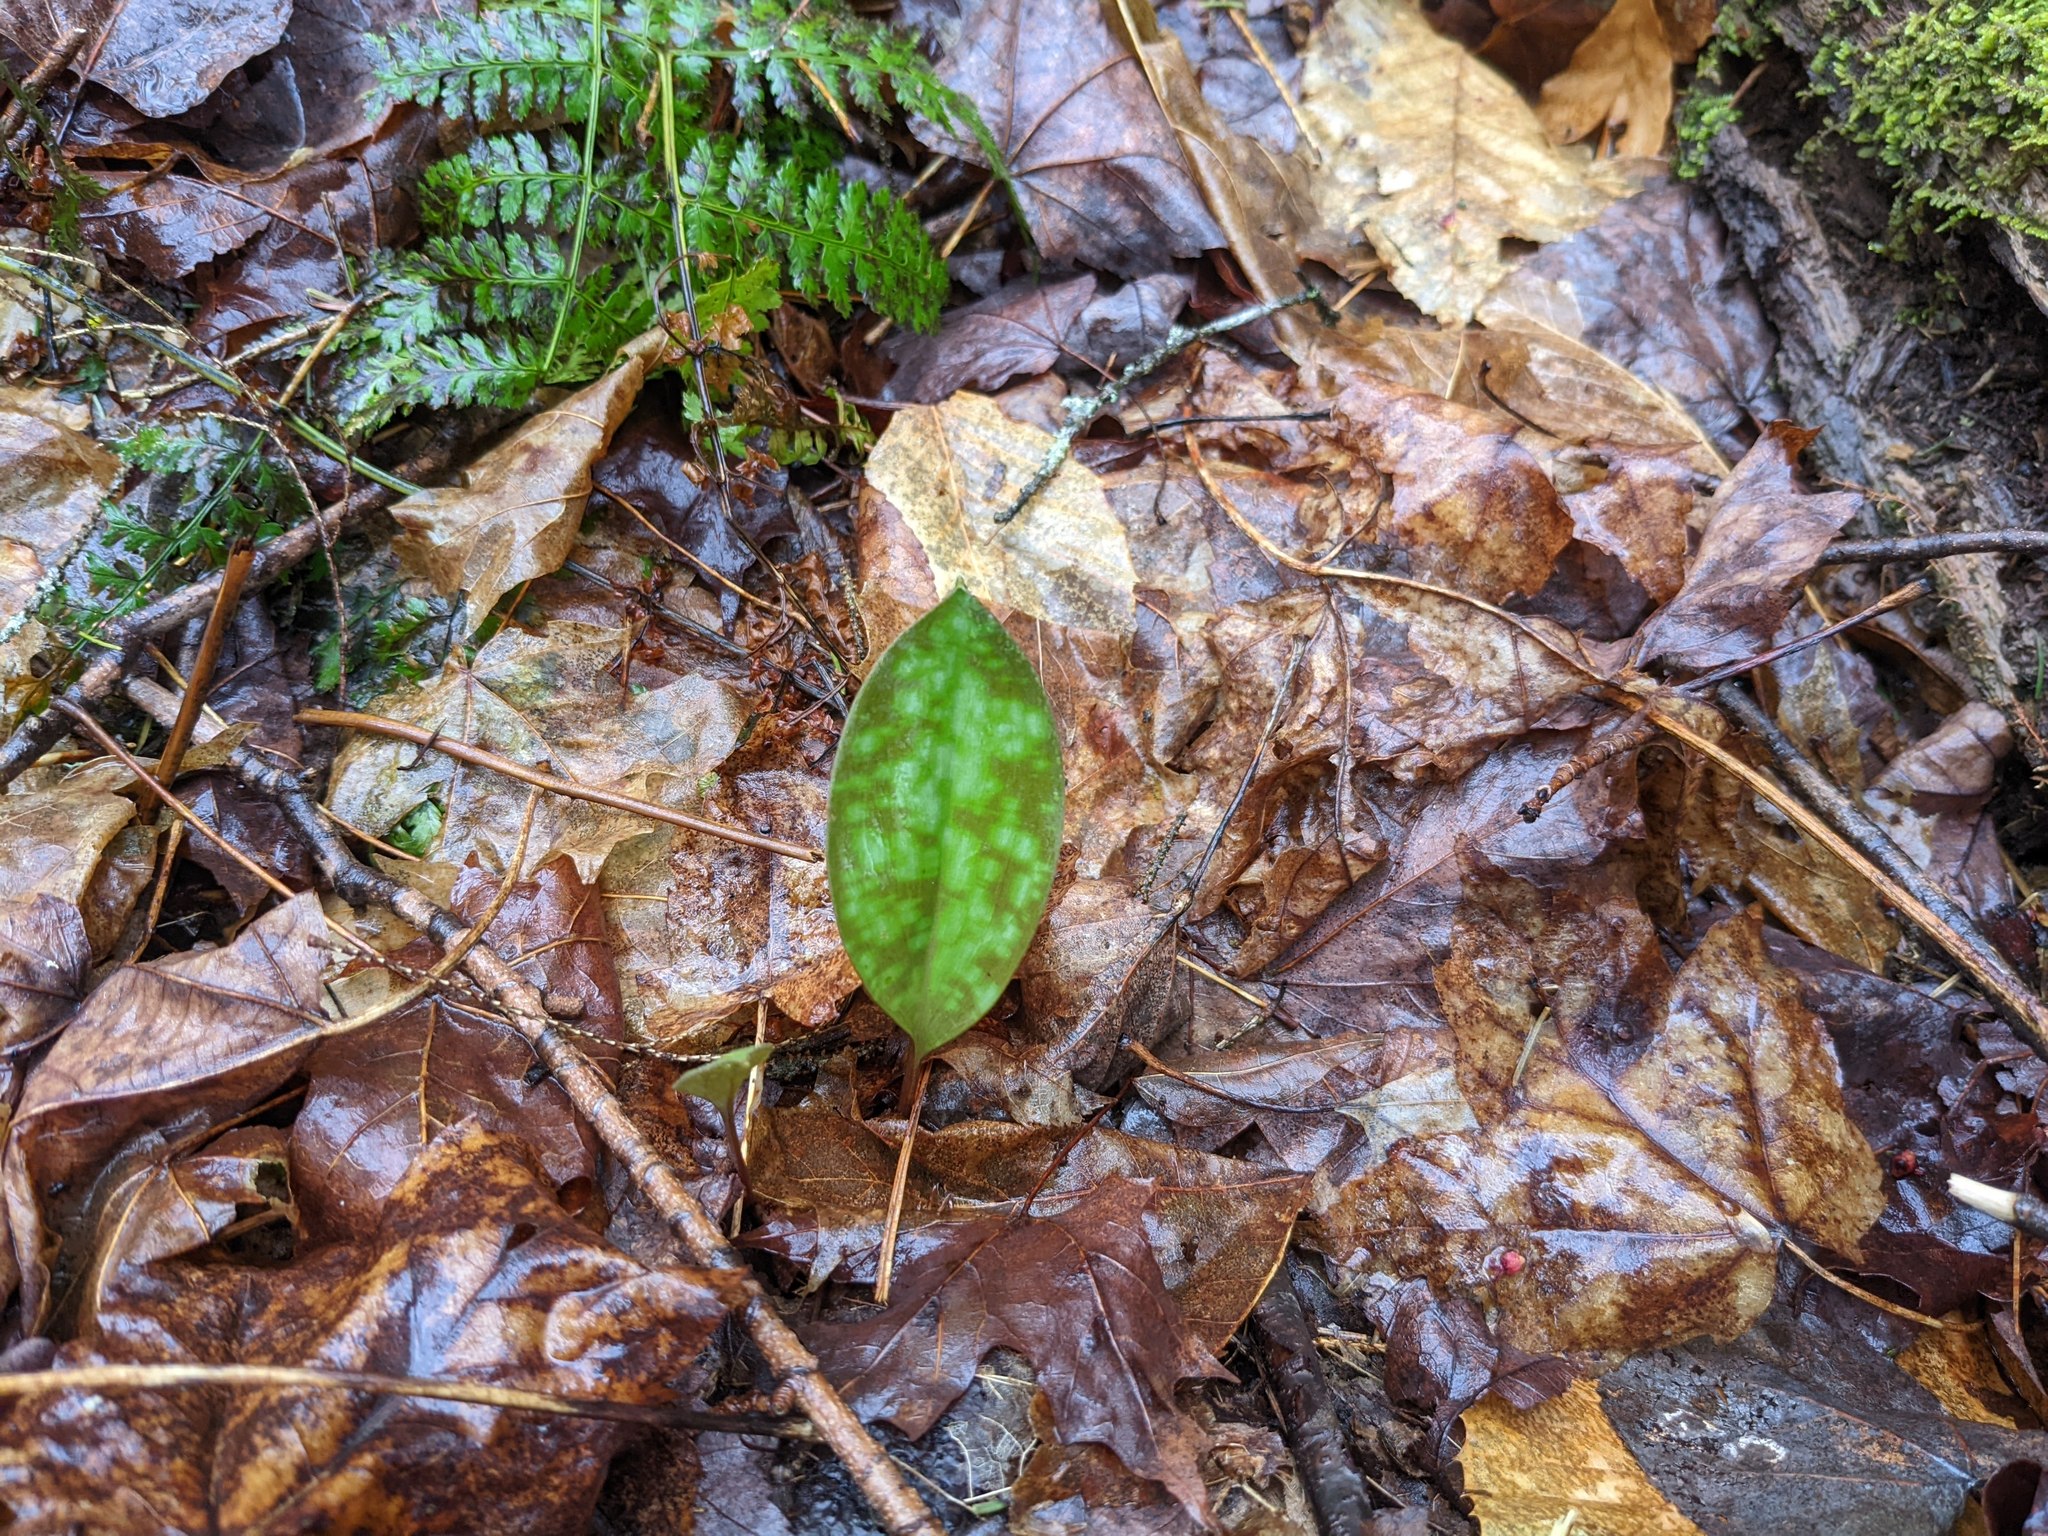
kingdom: Plantae
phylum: Tracheophyta
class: Liliopsida
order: Liliales
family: Liliaceae
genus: Erythronium
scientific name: Erythronium americanum
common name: Yellow adder's-tongue
